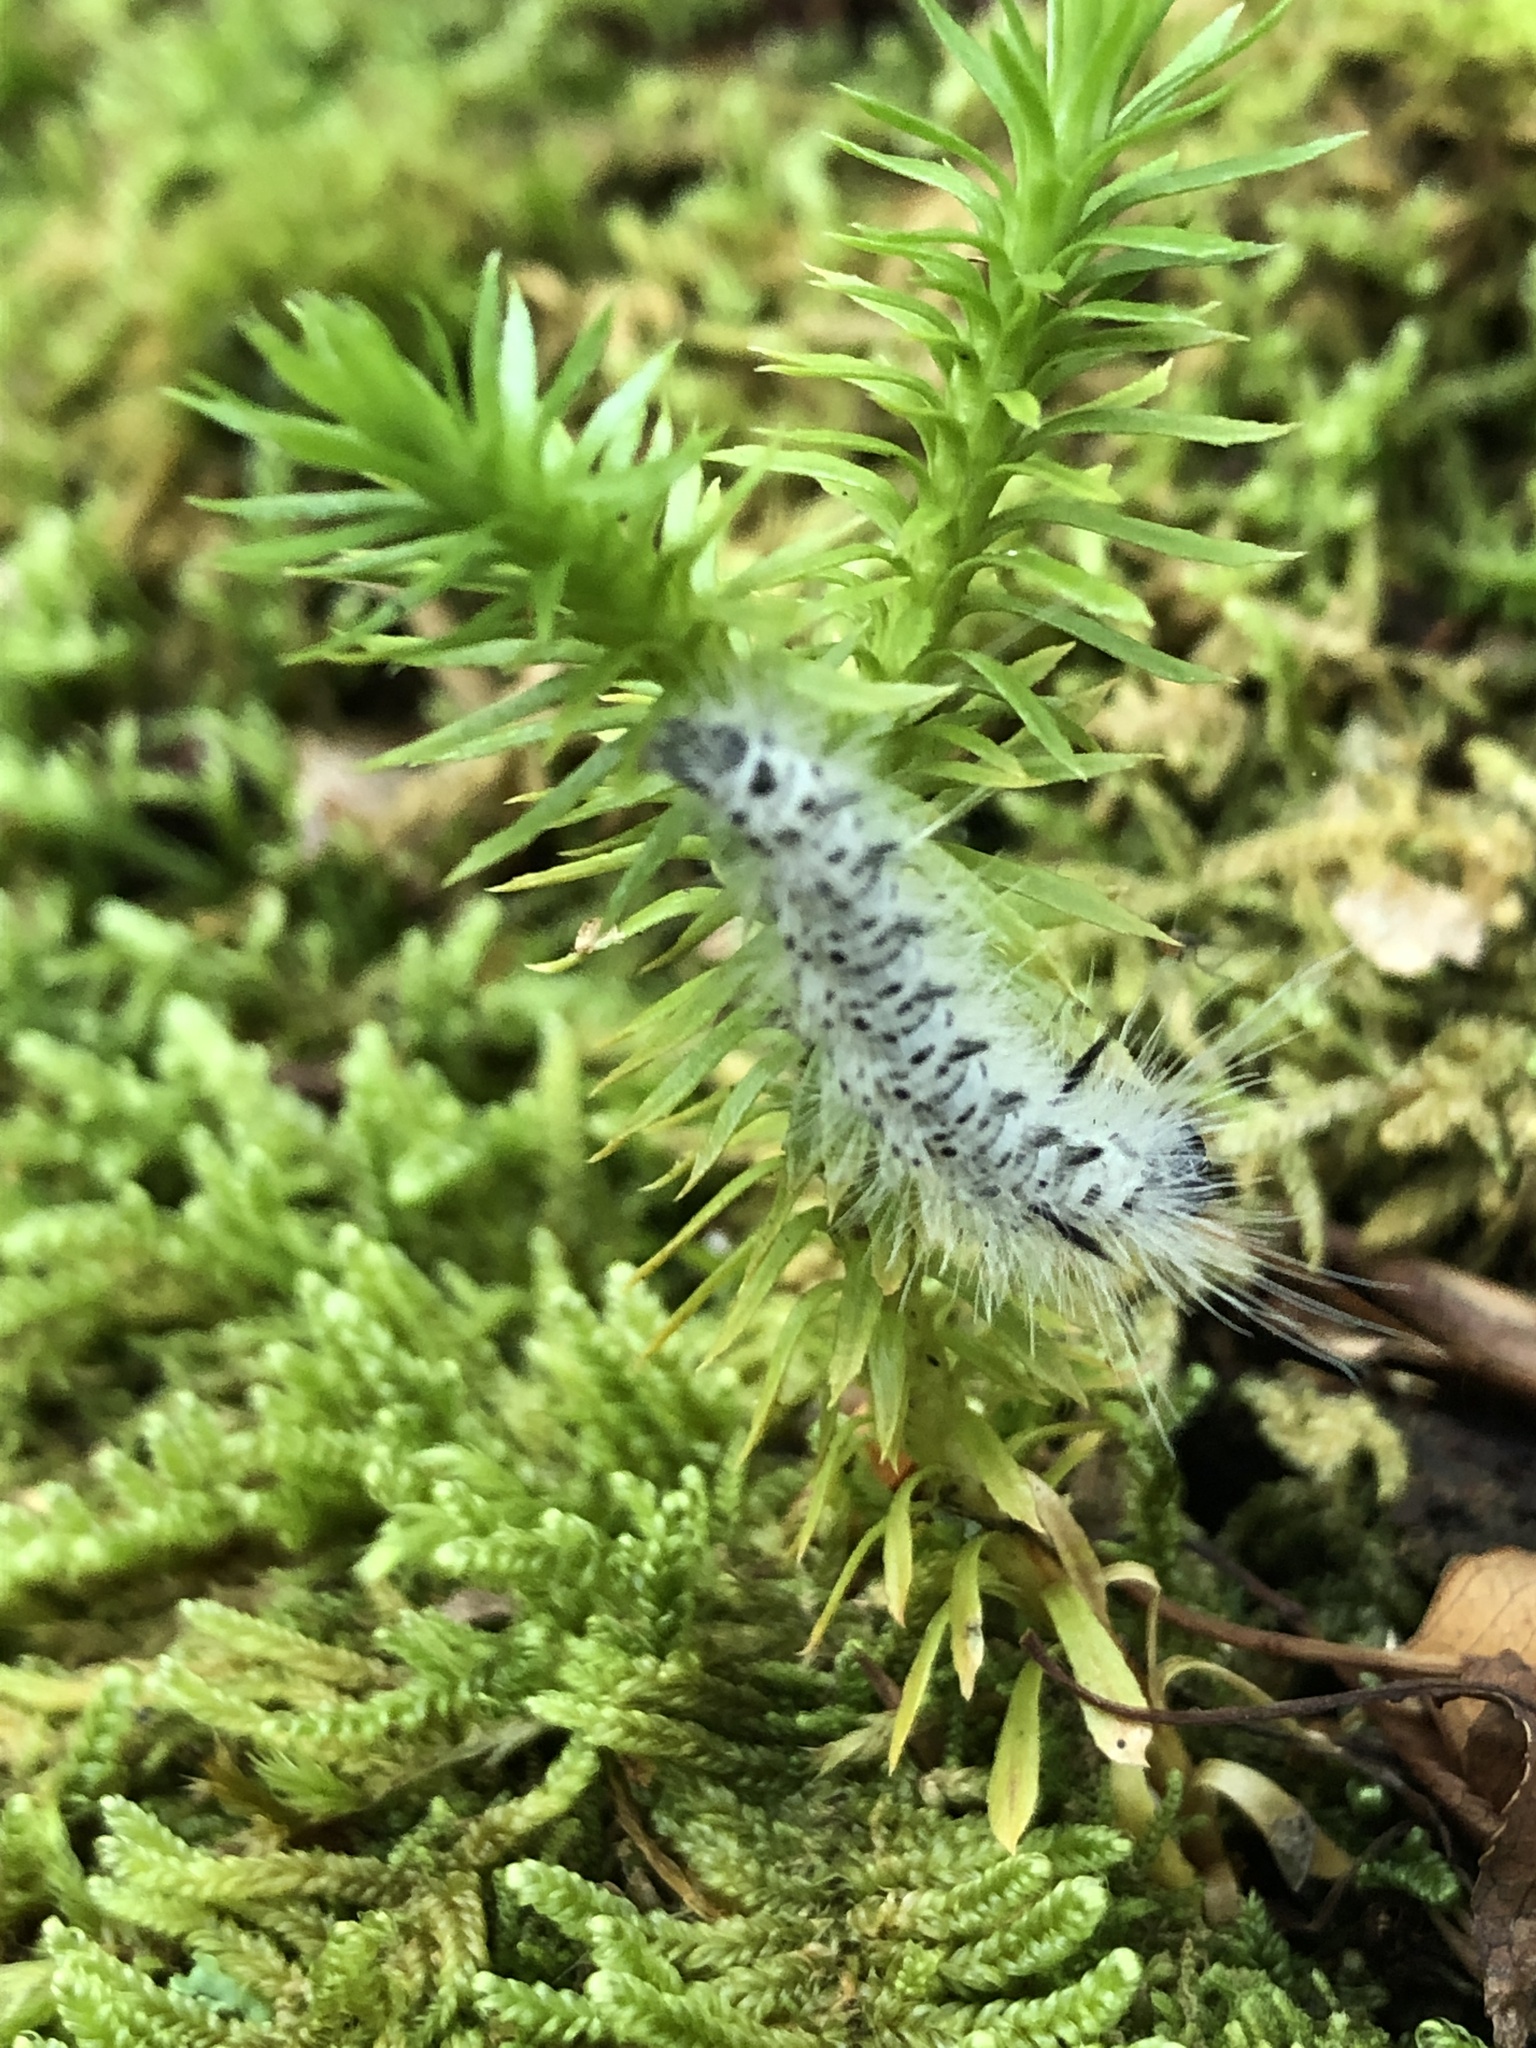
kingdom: Animalia
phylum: Arthropoda
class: Insecta
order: Lepidoptera
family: Erebidae
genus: Lophocampa
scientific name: Lophocampa caryae
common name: Hickory tussock moth
